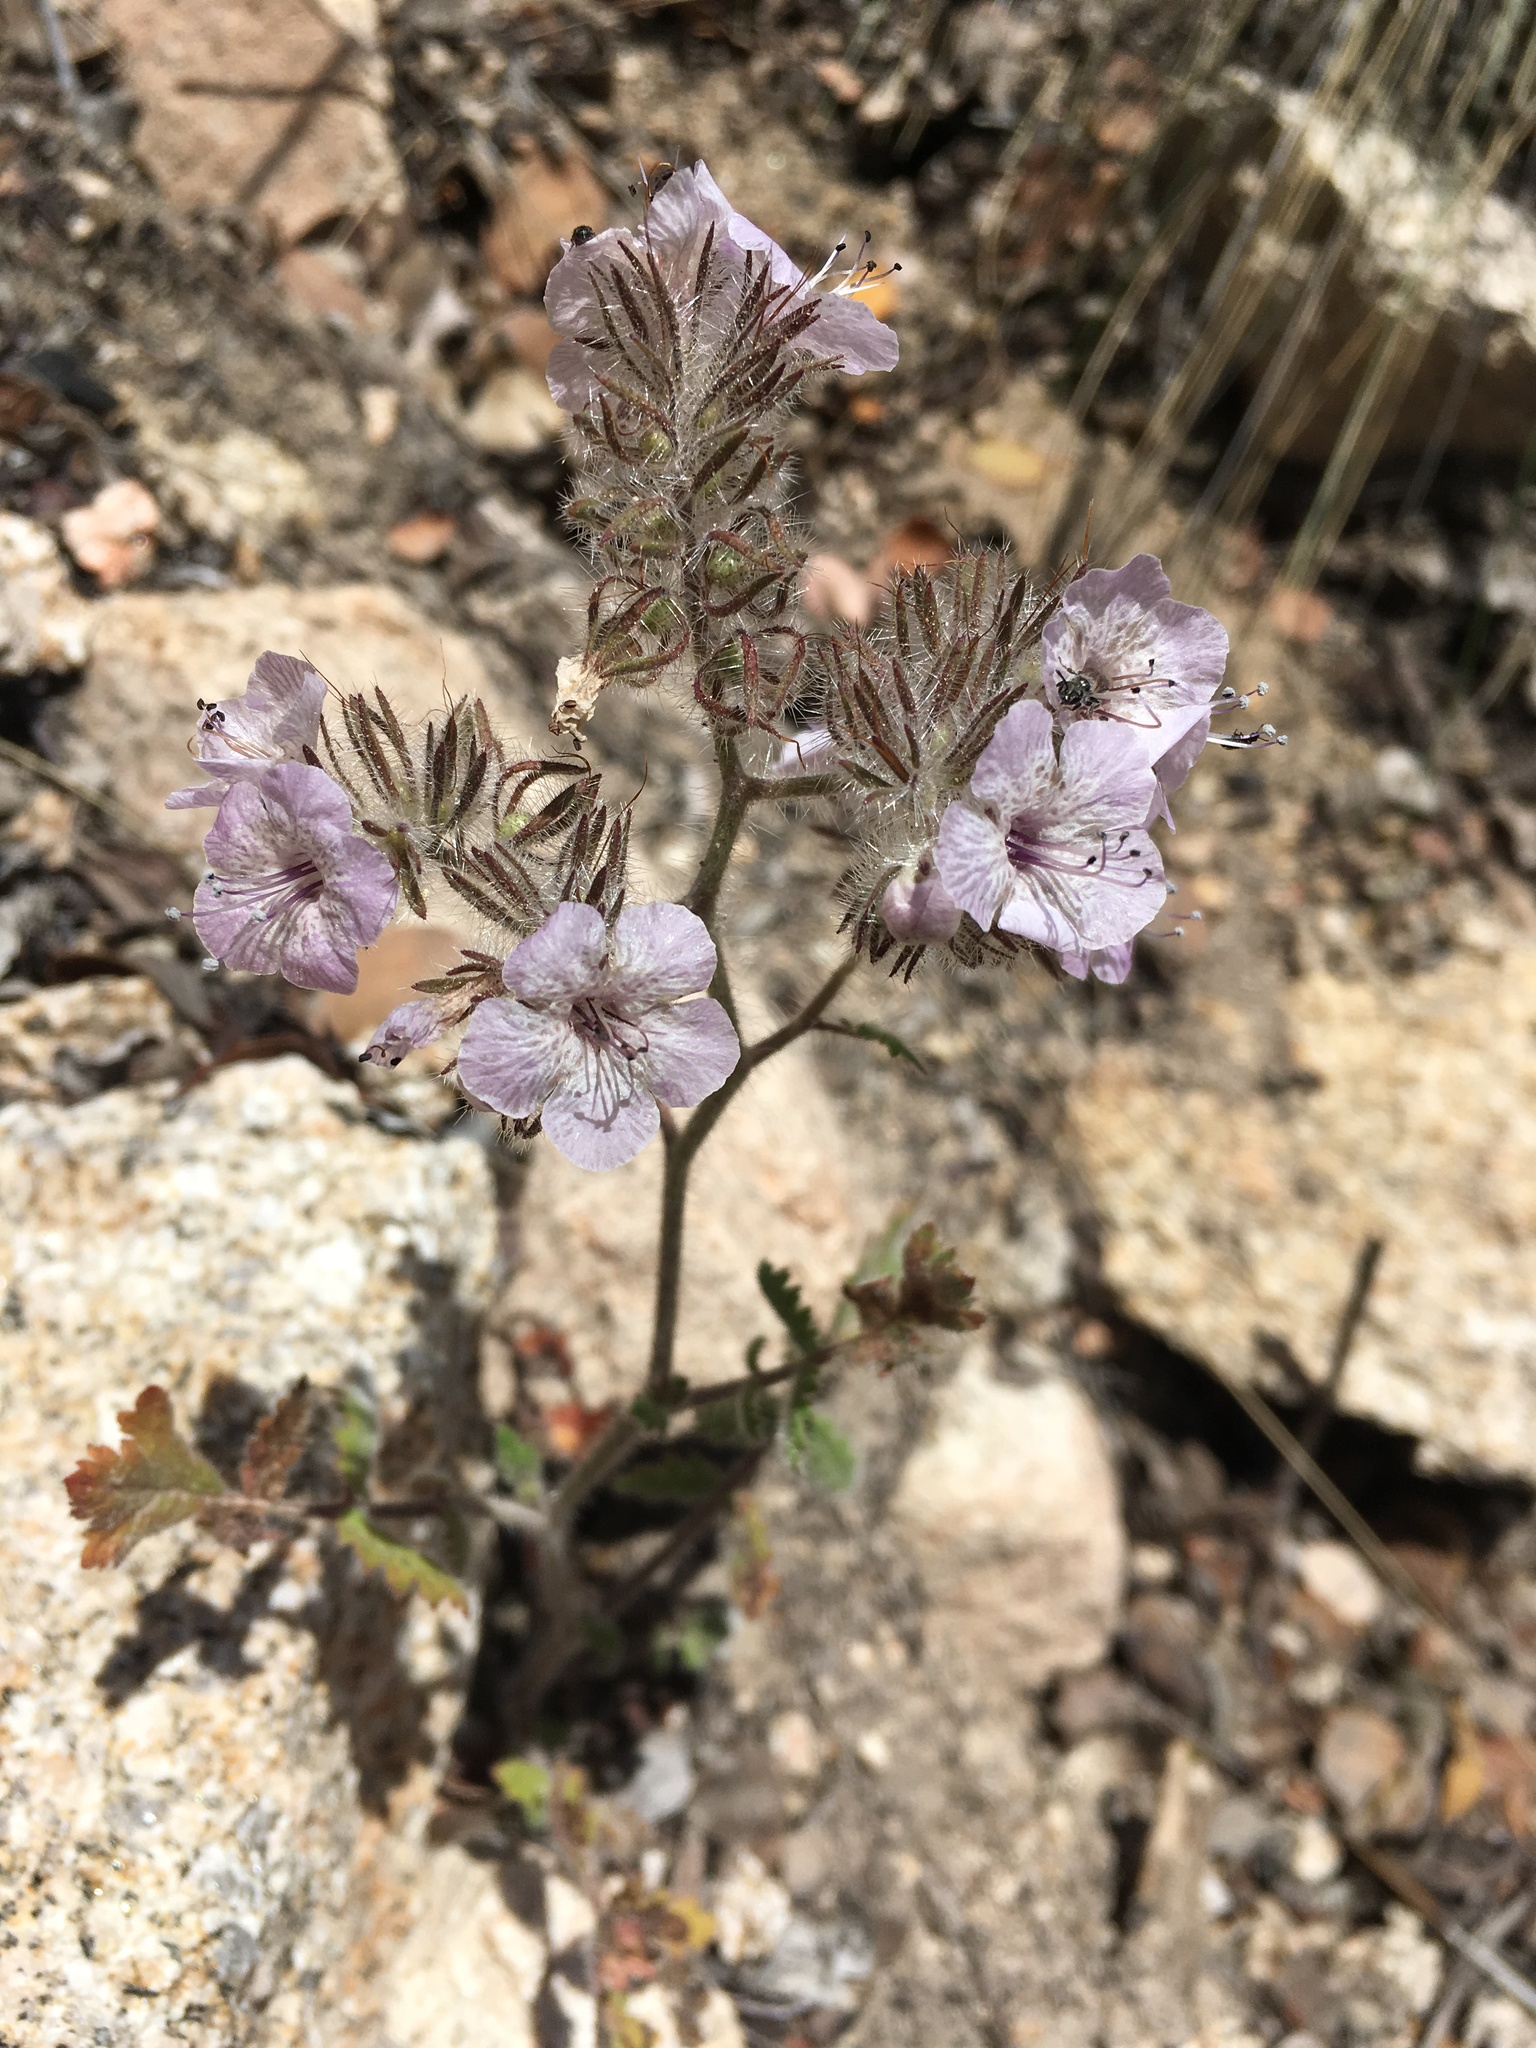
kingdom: Plantae
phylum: Tracheophyta
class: Magnoliopsida
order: Boraginales
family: Hydrophyllaceae
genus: Phacelia
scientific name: Phacelia cicutaria
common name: Caterpillar phacelia
